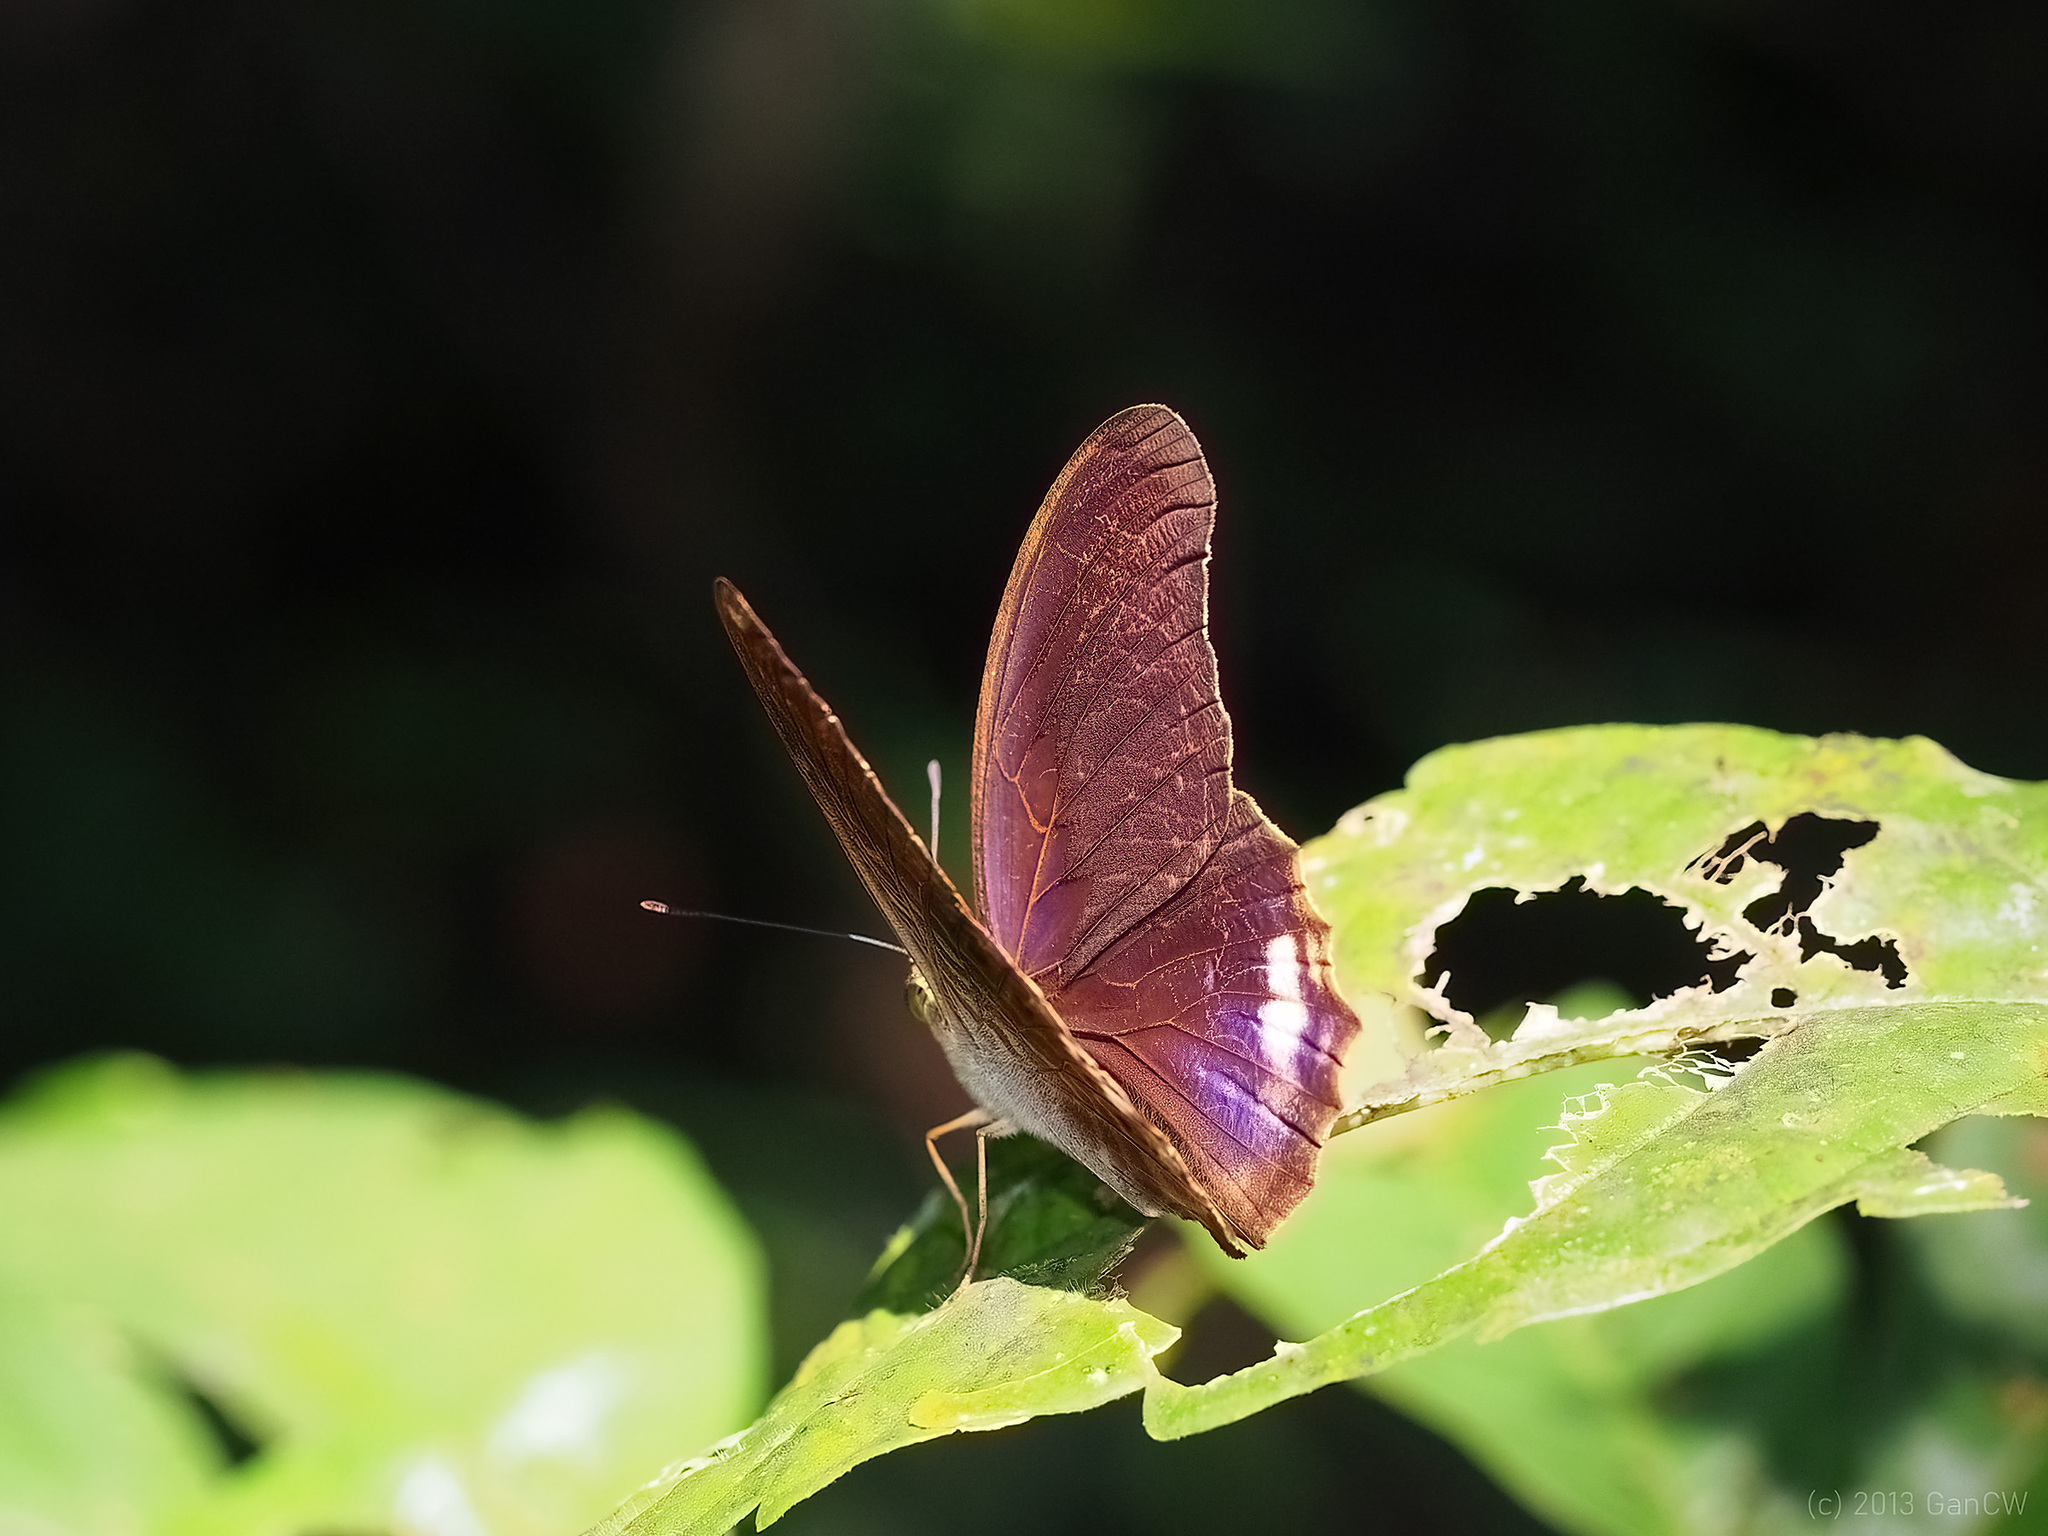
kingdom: Animalia
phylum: Arthropoda
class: Insecta
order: Lepidoptera
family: Nymphalidae
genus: Terinos
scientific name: Terinos terpander
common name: Royal assyrian
